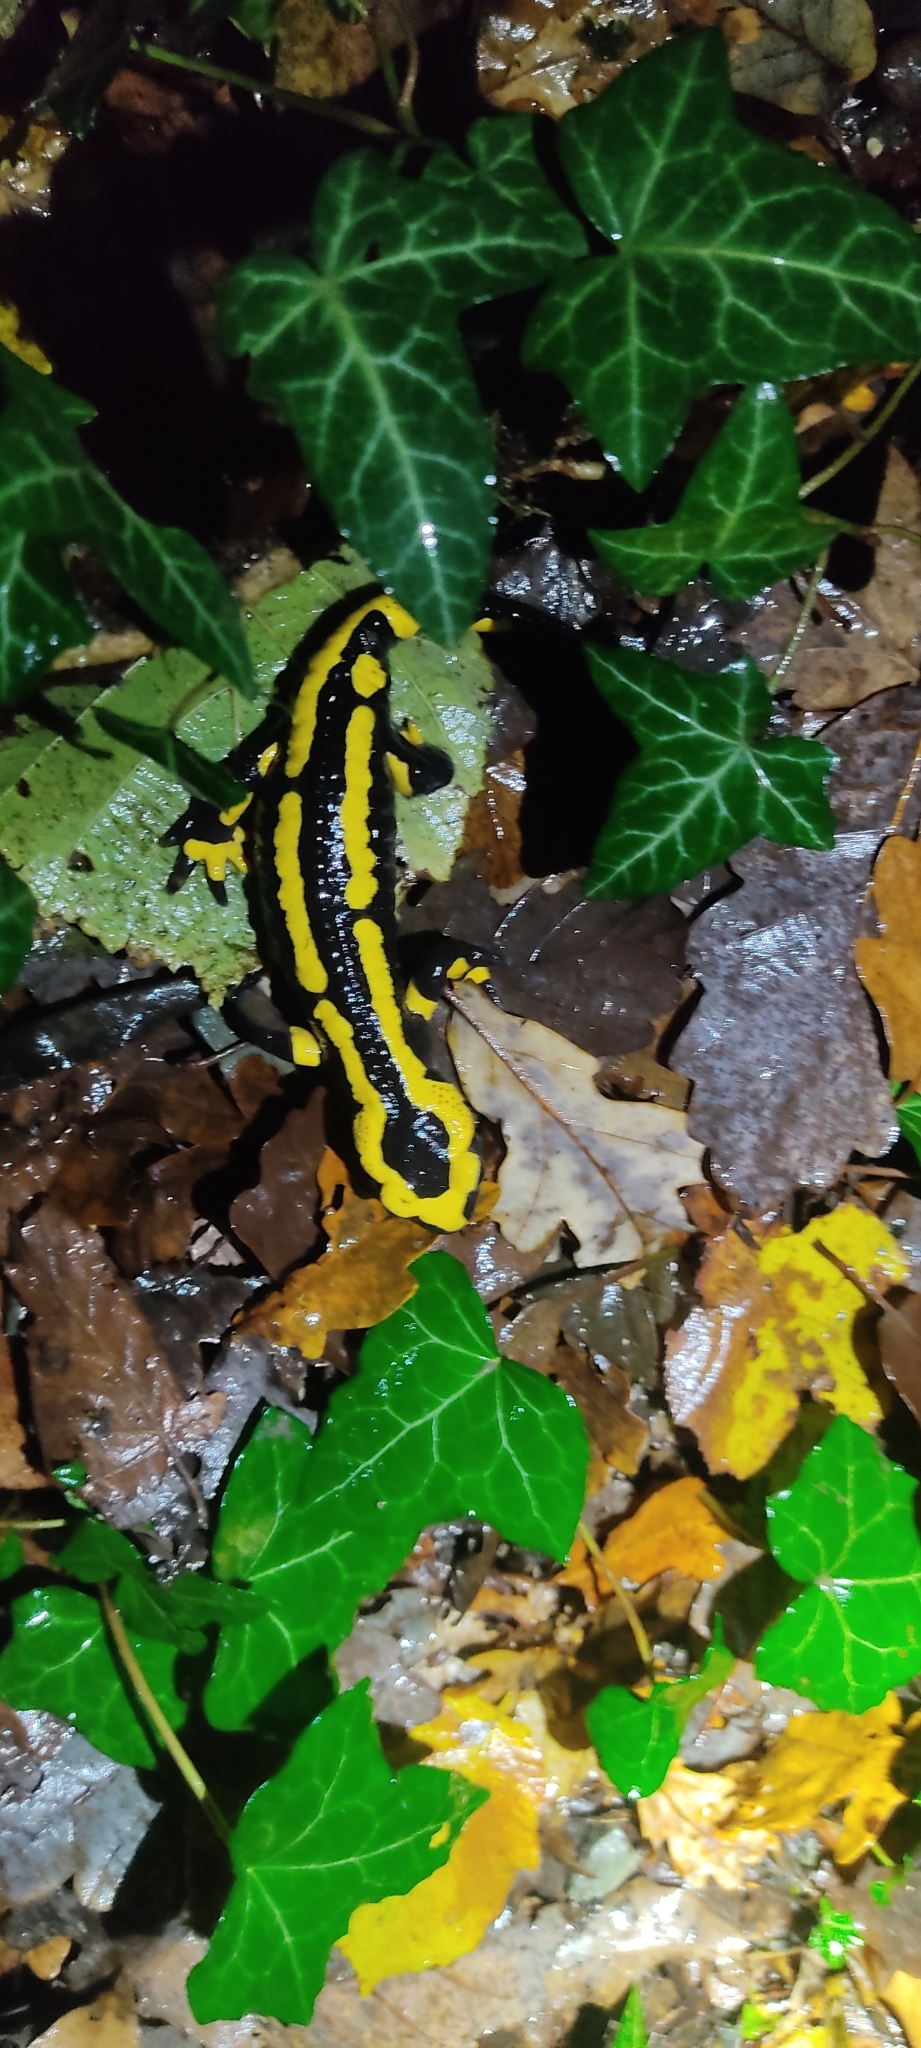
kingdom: Animalia
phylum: Chordata
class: Amphibia
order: Caudata
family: Salamandridae
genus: Salamandra
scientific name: Salamandra salamandra
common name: Fire salamander
